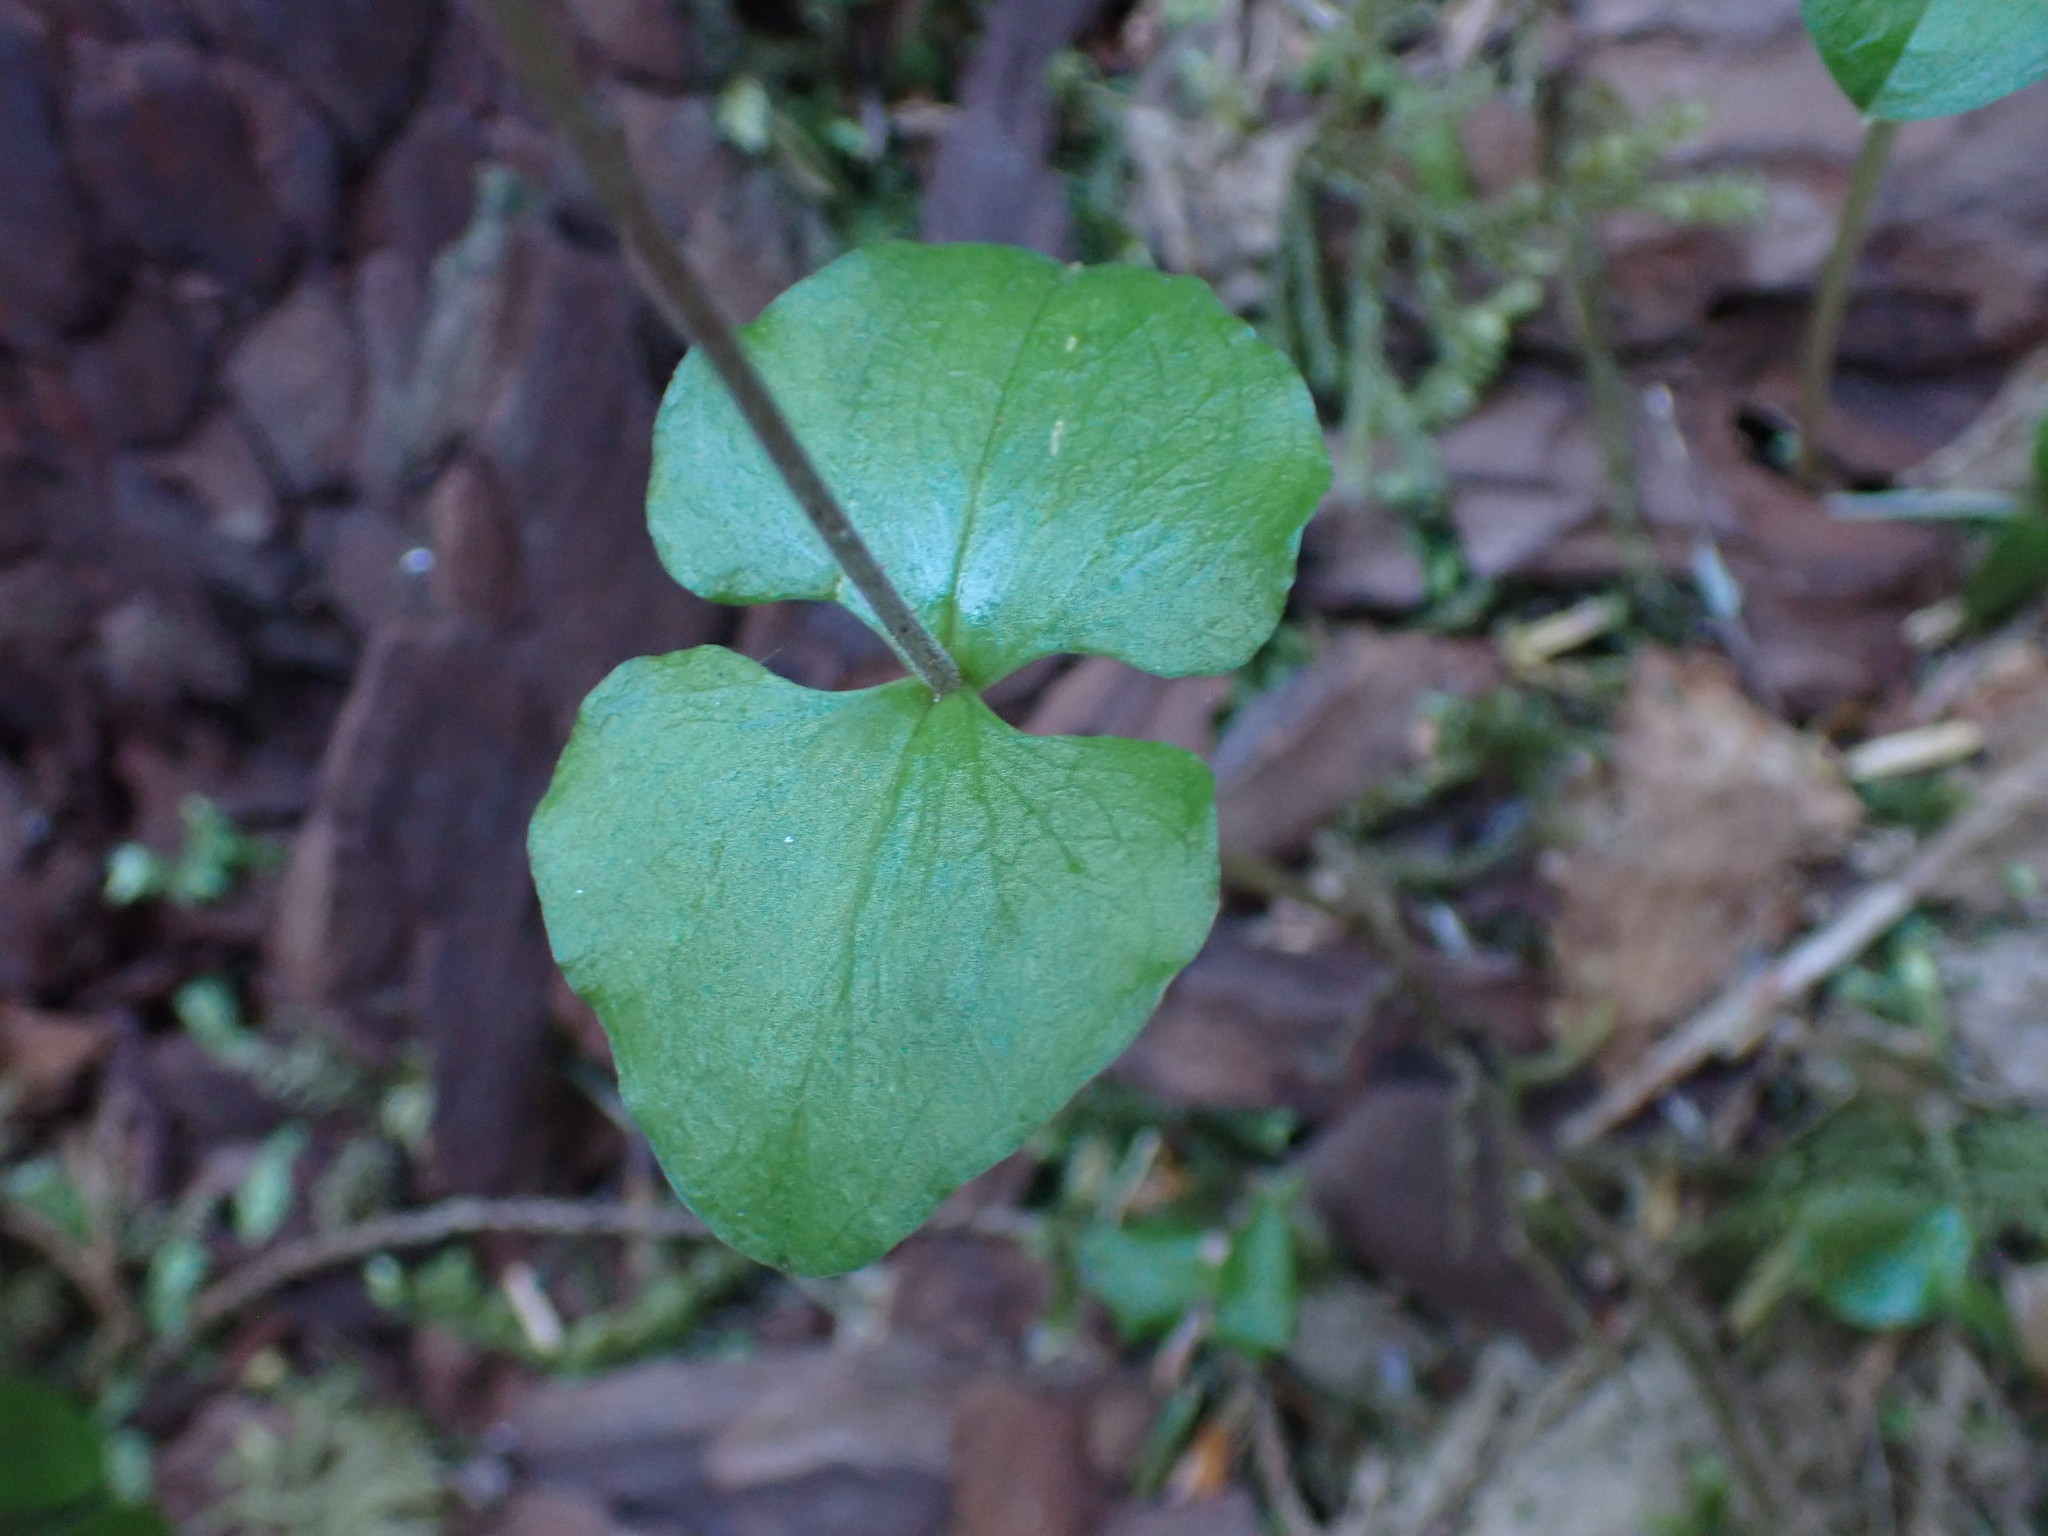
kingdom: Plantae
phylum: Tracheophyta
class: Liliopsida
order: Asparagales
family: Orchidaceae
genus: Neottia
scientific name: Neottia cordata
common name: Lesser twayblade
